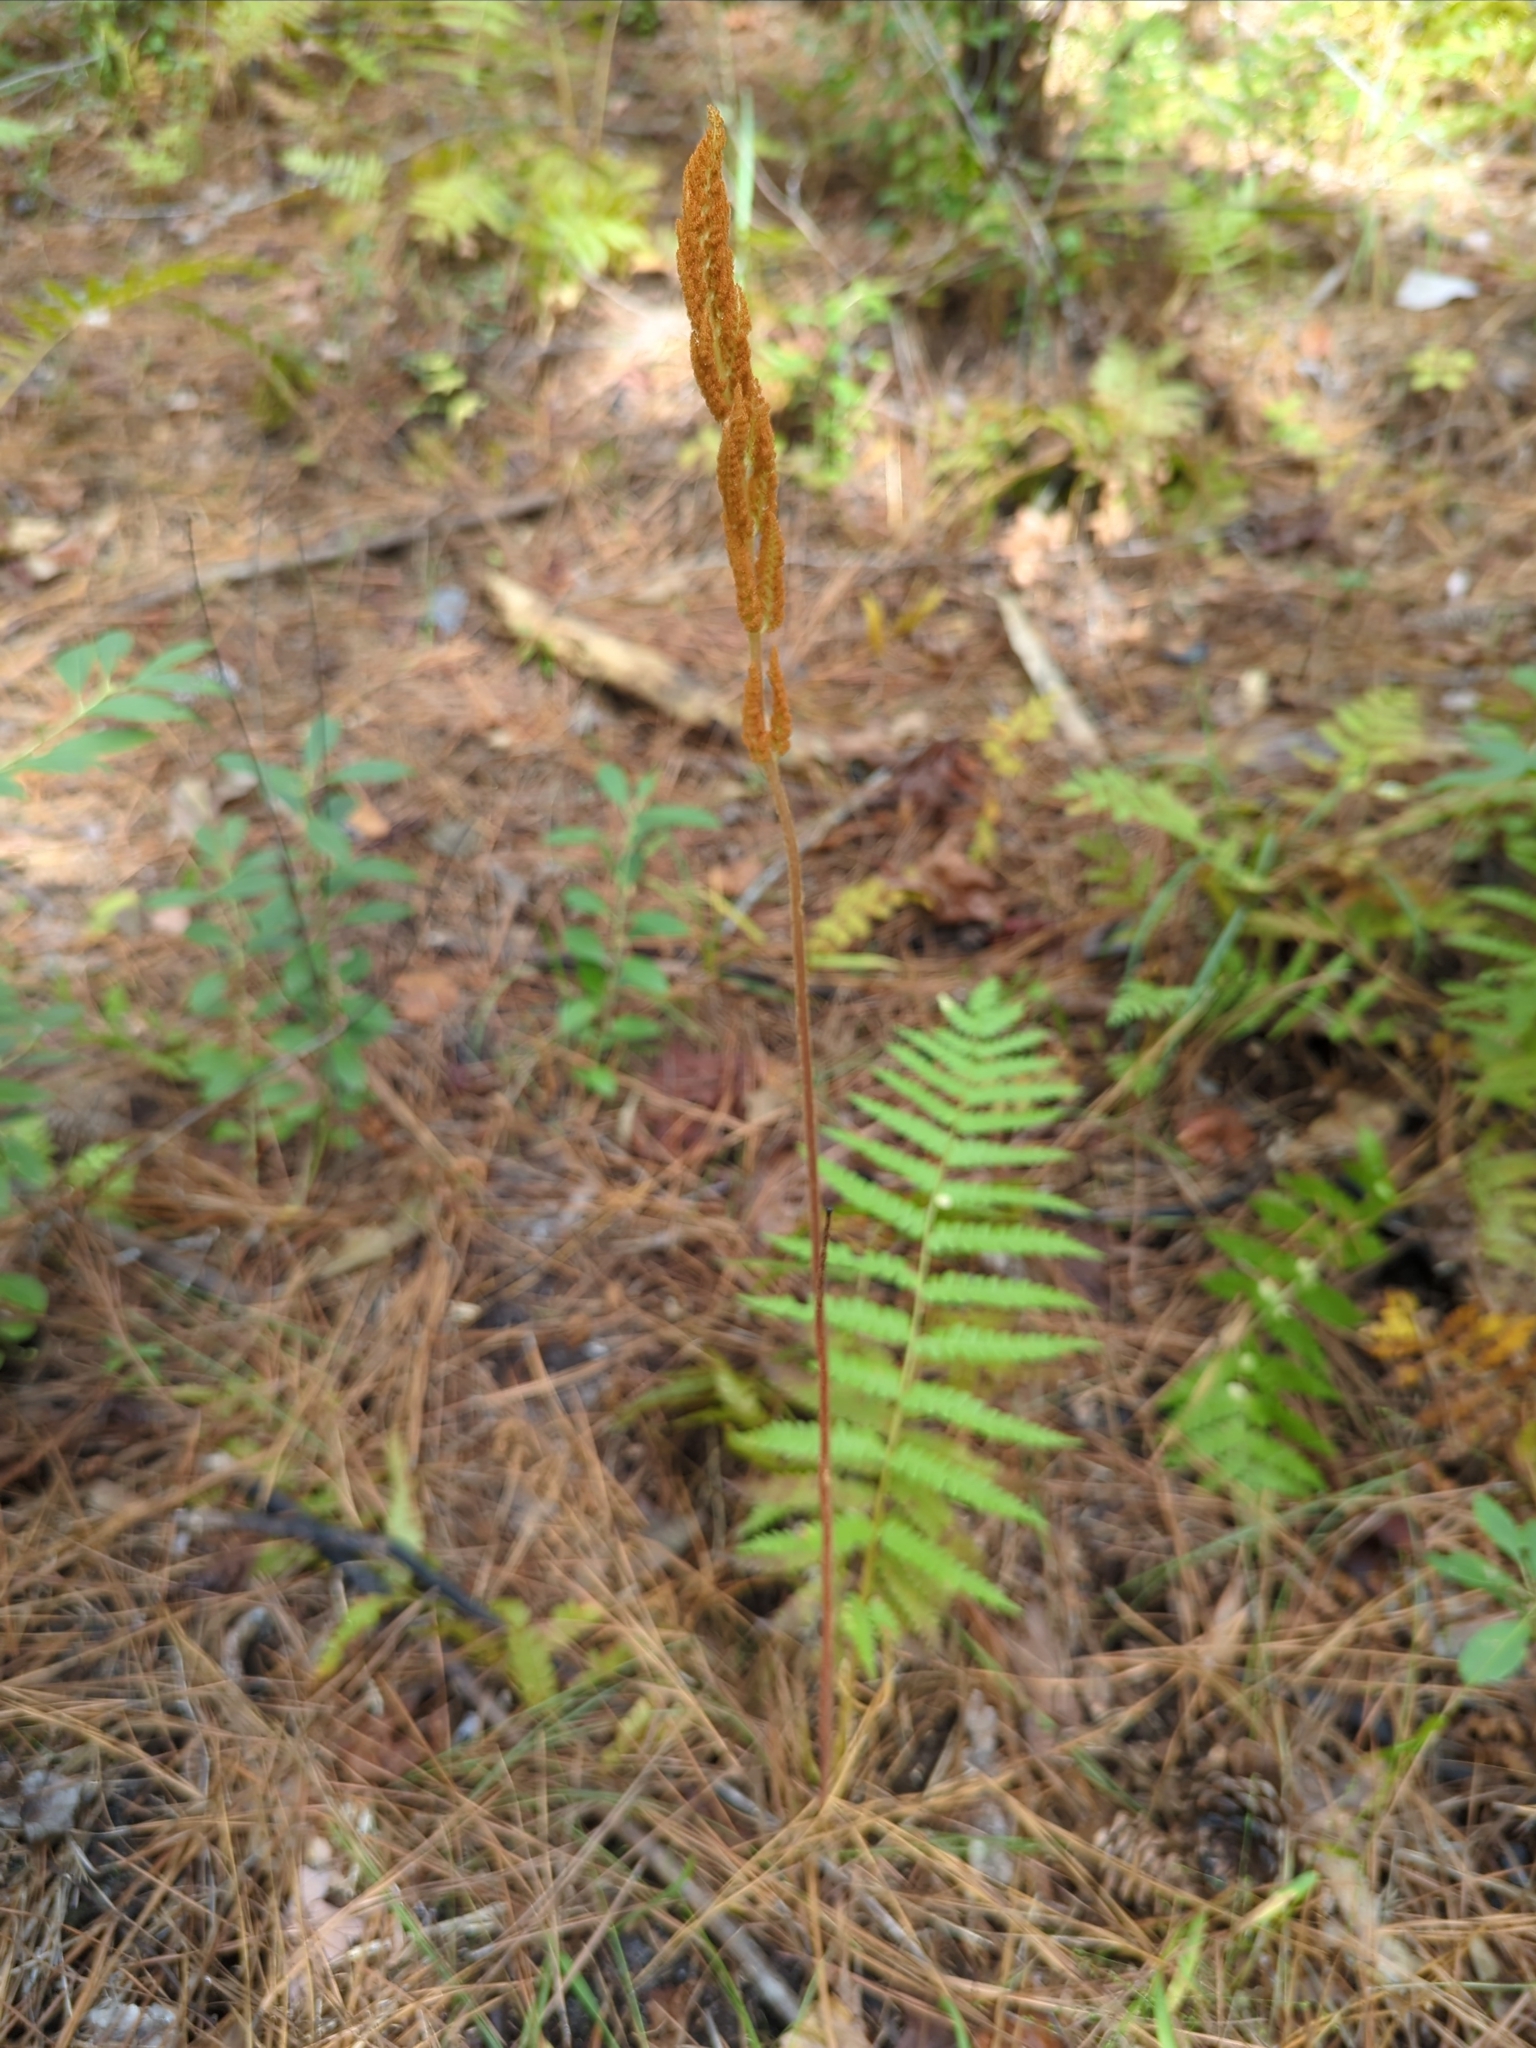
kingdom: Plantae
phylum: Tracheophyta
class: Polypodiopsida
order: Osmundales
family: Osmundaceae
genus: Osmundastrum
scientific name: Osmundastrum cinnamomeum
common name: Cinnamon fern
